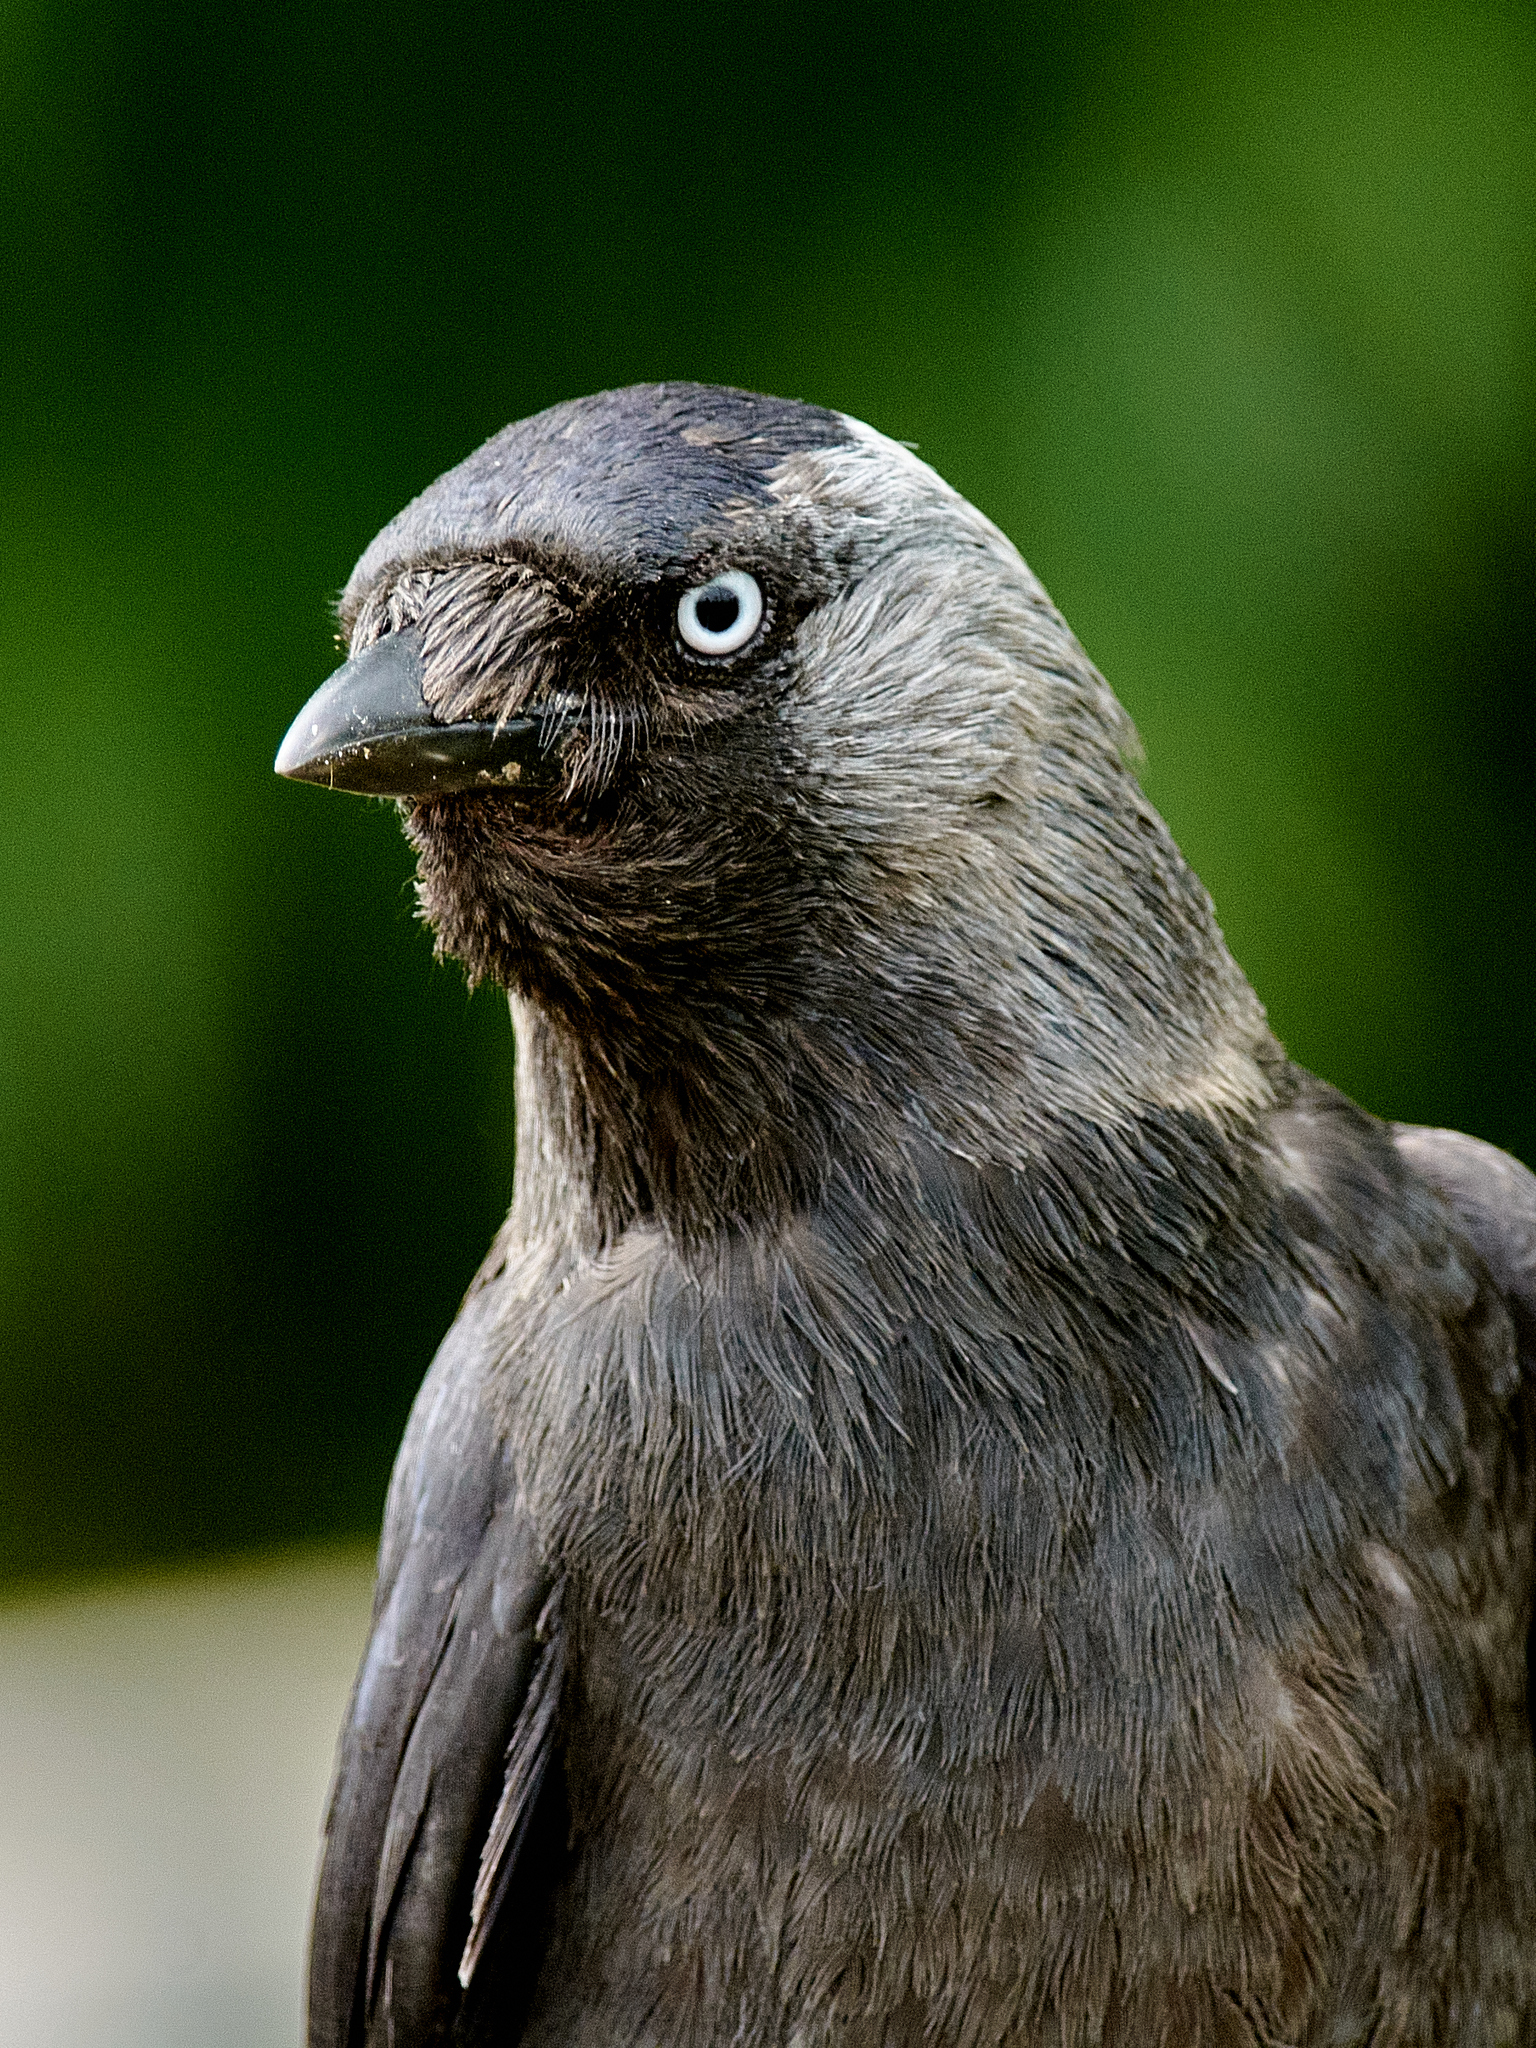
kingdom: Animalia
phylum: Chordata
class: Aves
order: Passeriformes
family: Corvidae
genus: Coloeus
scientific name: Coloeus monedula
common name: Western jackdaw
